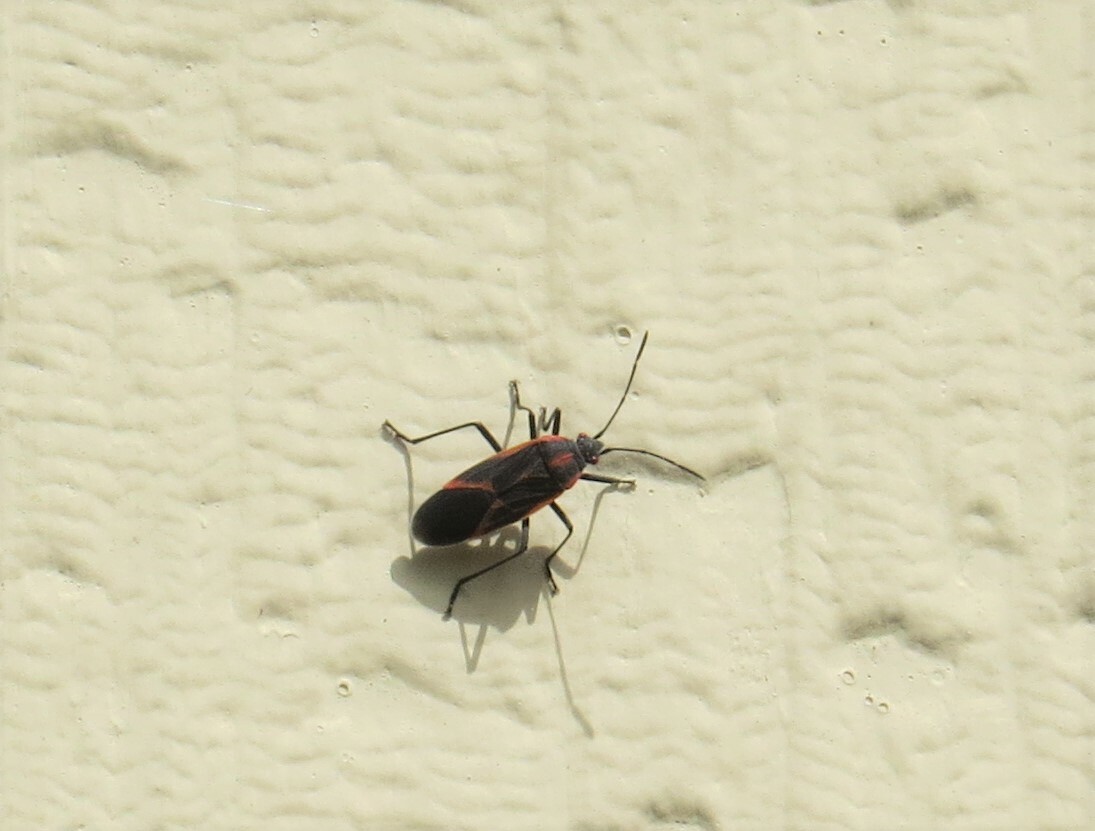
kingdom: Animalia
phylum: Arthropoda
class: Insecta
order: Hemiptera
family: Rhopalidae
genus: Boisea
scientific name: Boisea trivittata
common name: Boxelder bug
